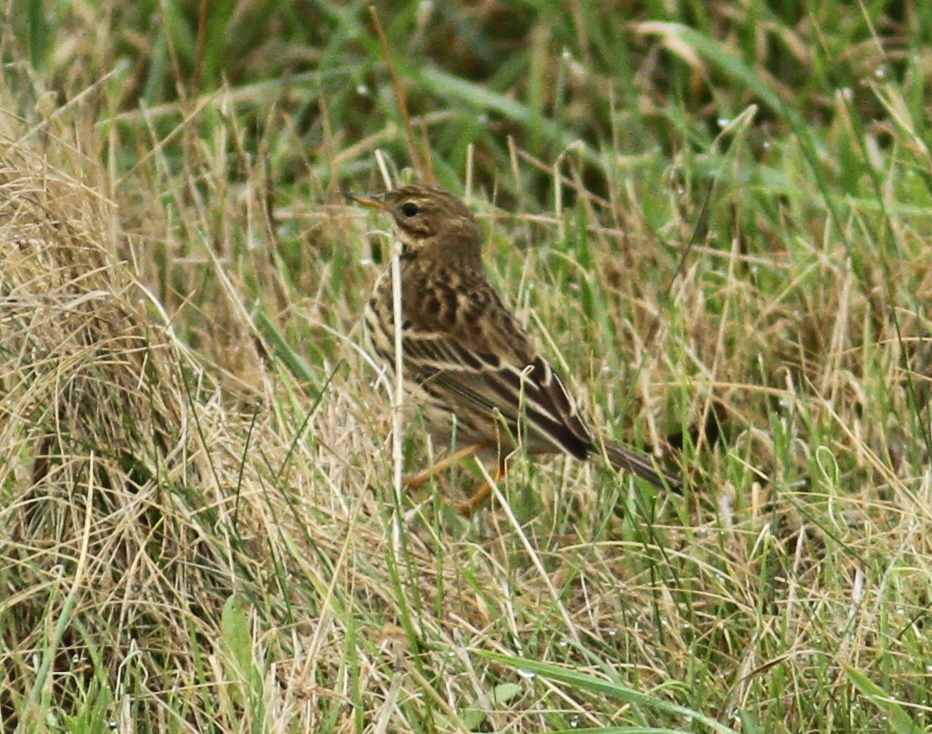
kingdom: Animalia
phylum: Chordata
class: Aves
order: Passeriformes
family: Motacillidae
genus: Anthus
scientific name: Anthus pratensis
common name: Meadow pipit
